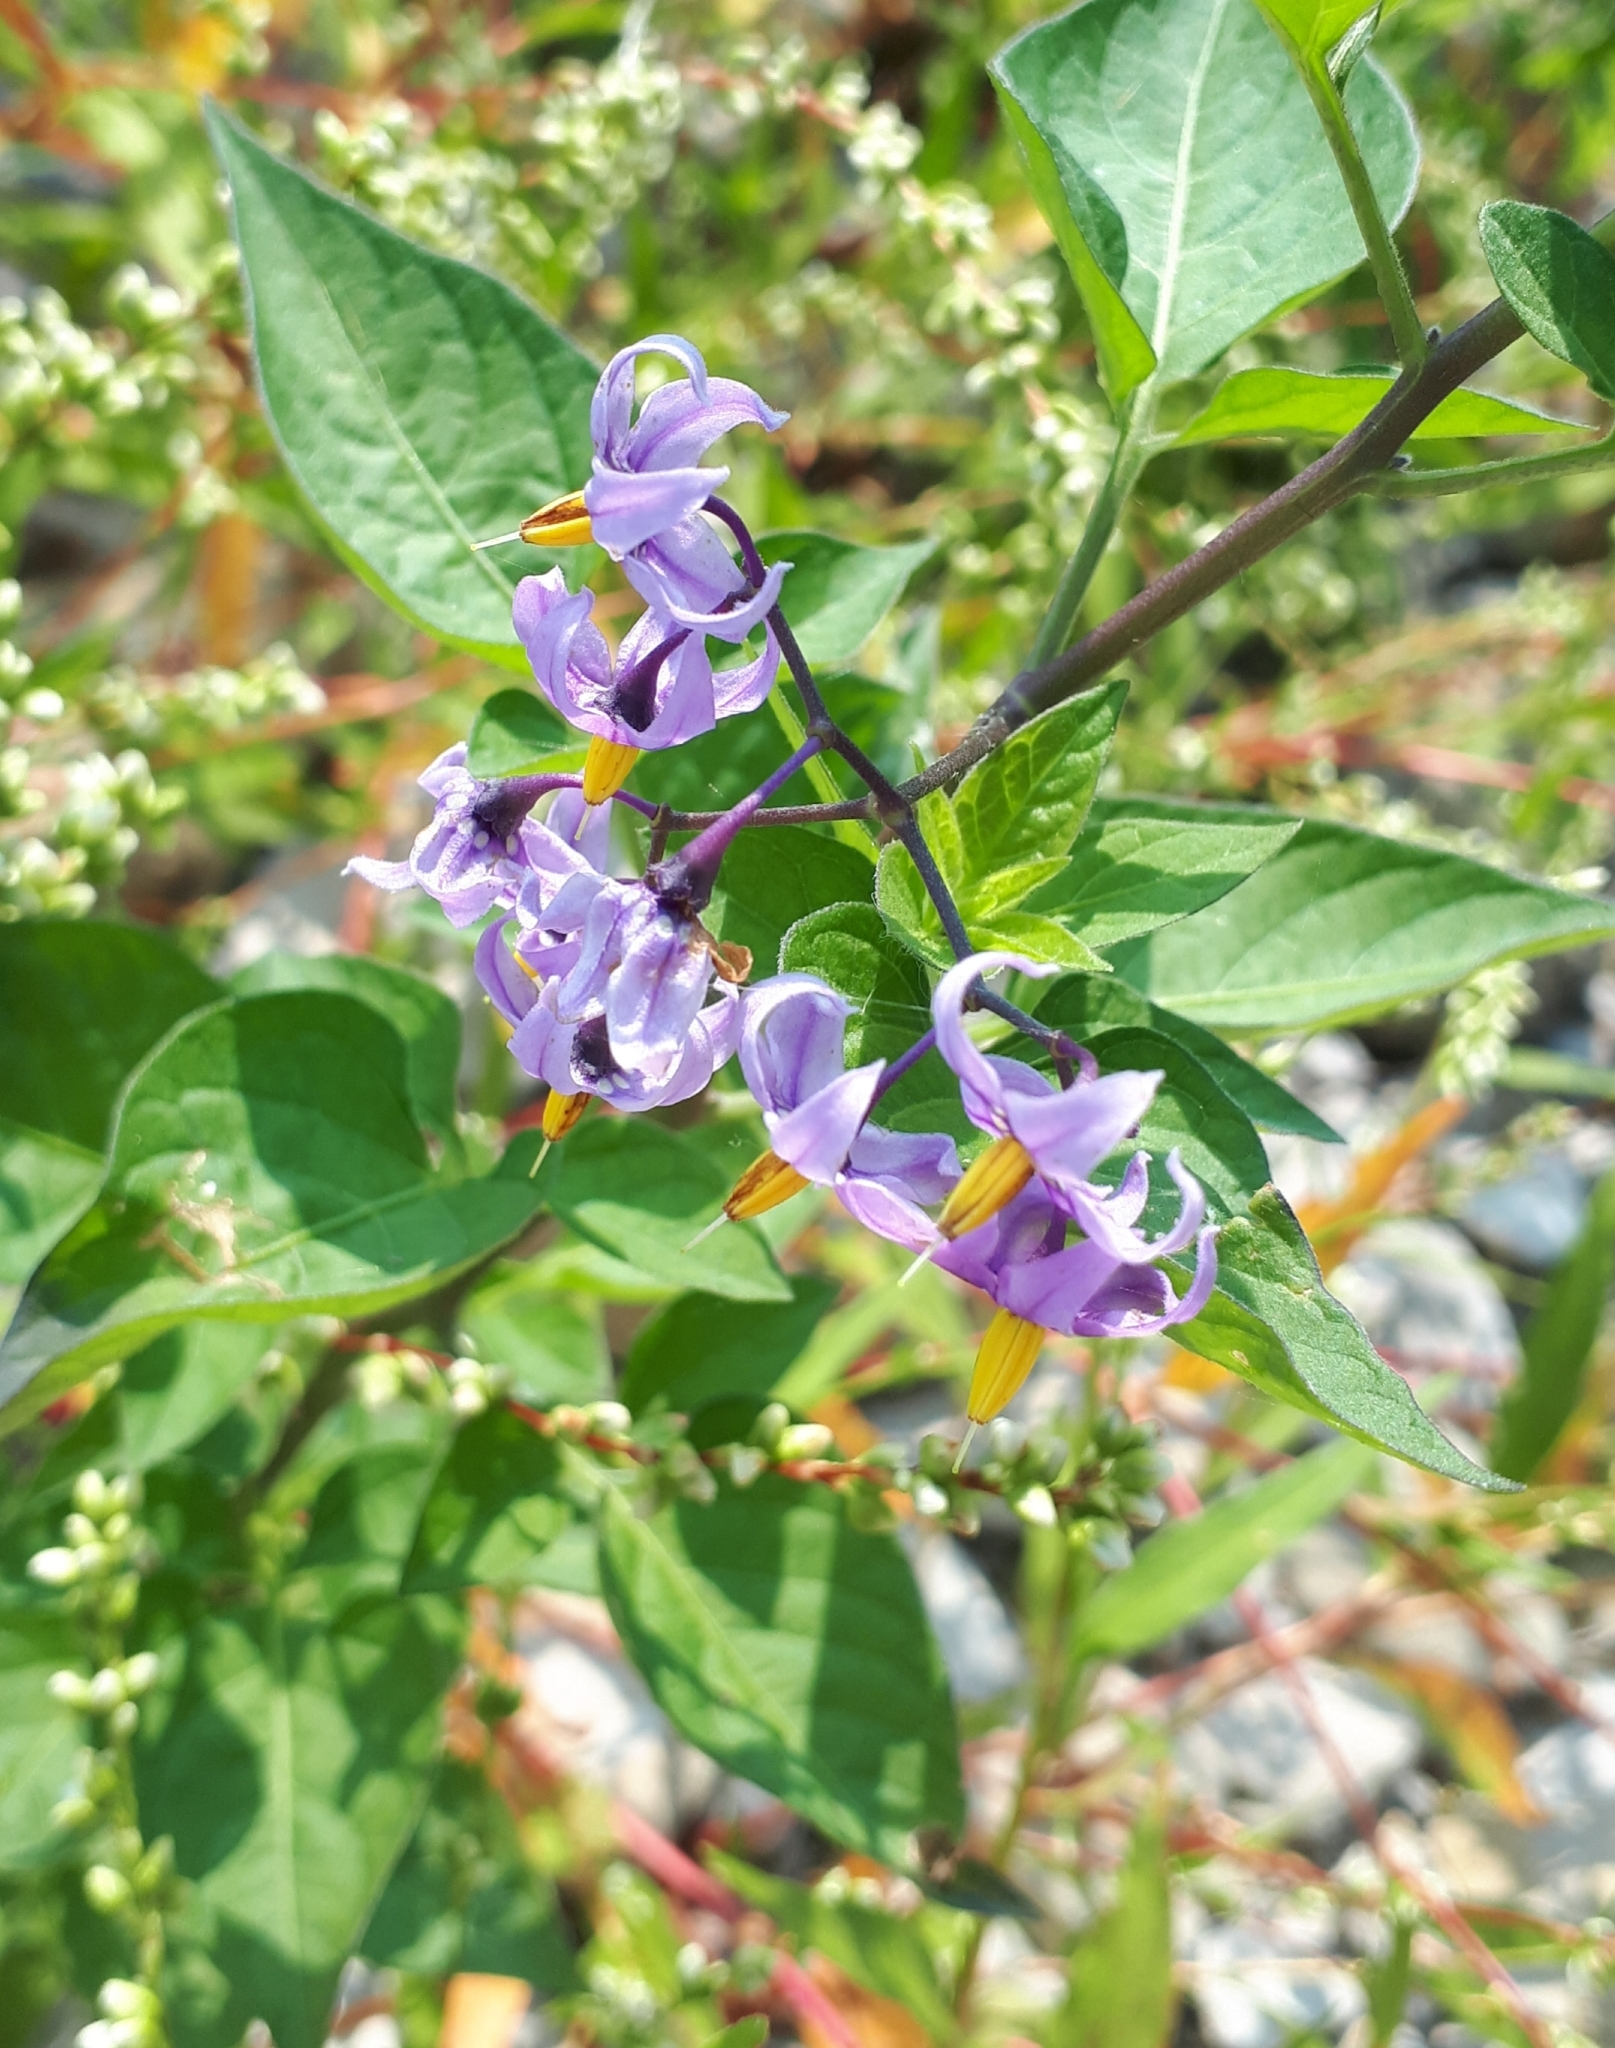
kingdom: Plantae
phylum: Tracheophyta
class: Magnoliopsida
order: Solanales
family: Solanaceae
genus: Solanum
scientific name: Solanum dulcamara
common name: Climbing nightshade
